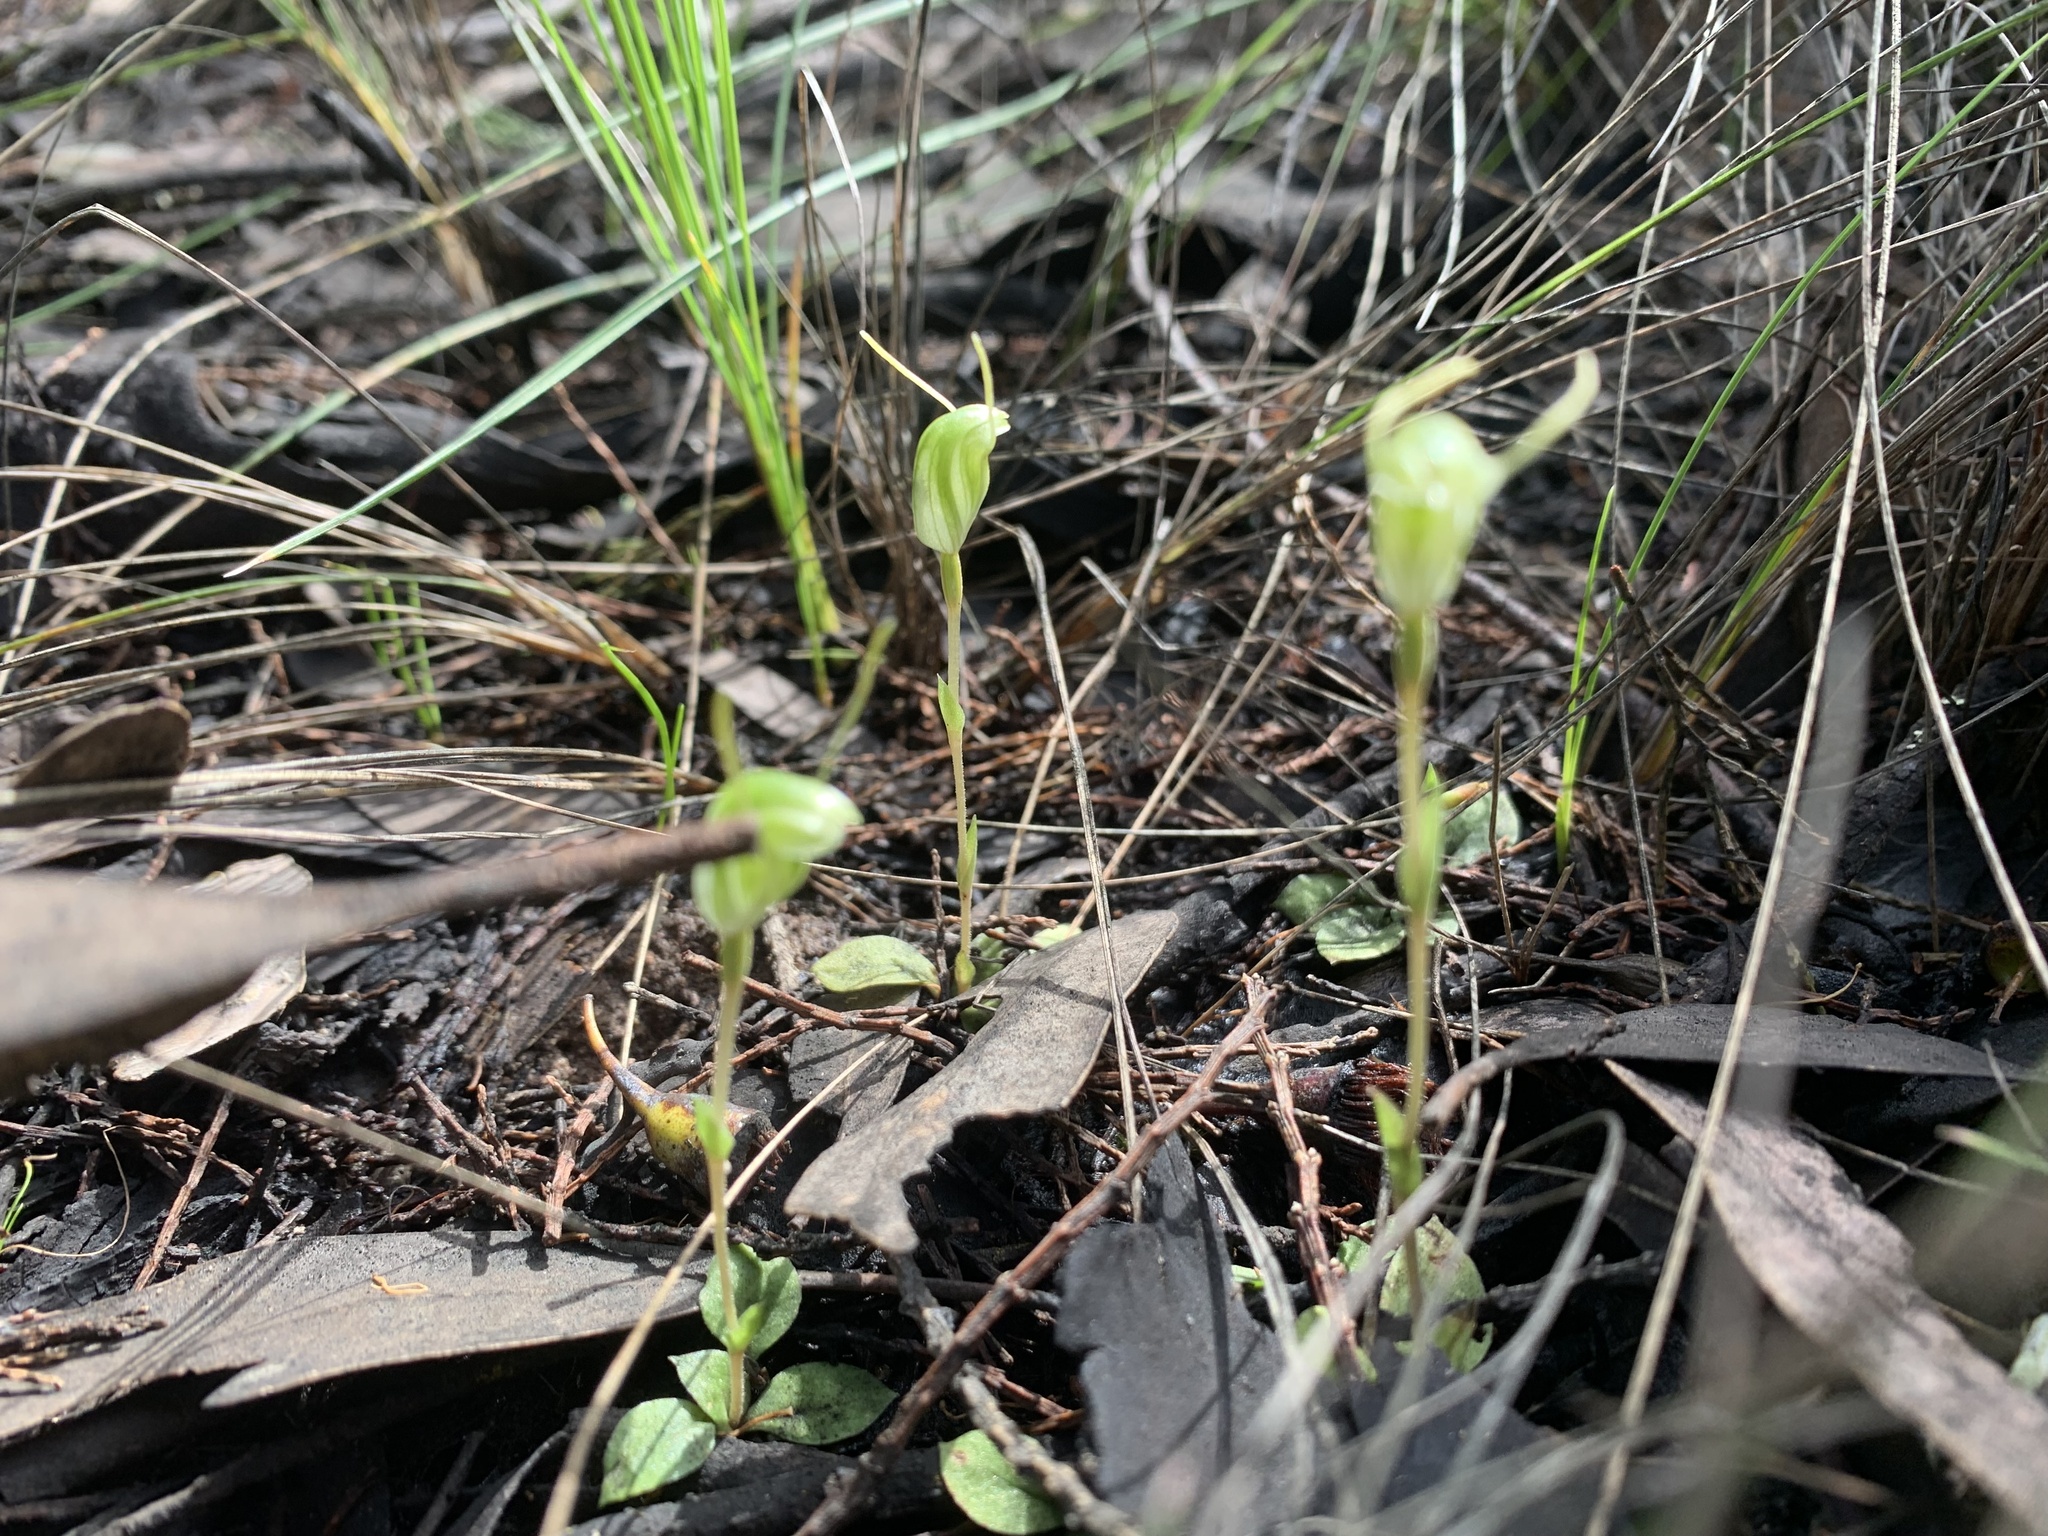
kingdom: Plantae
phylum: Tracheophyta
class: Liliopsida
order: Asparagales
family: Orchidaceae
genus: Pterostylis
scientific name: Pterostylis nana
